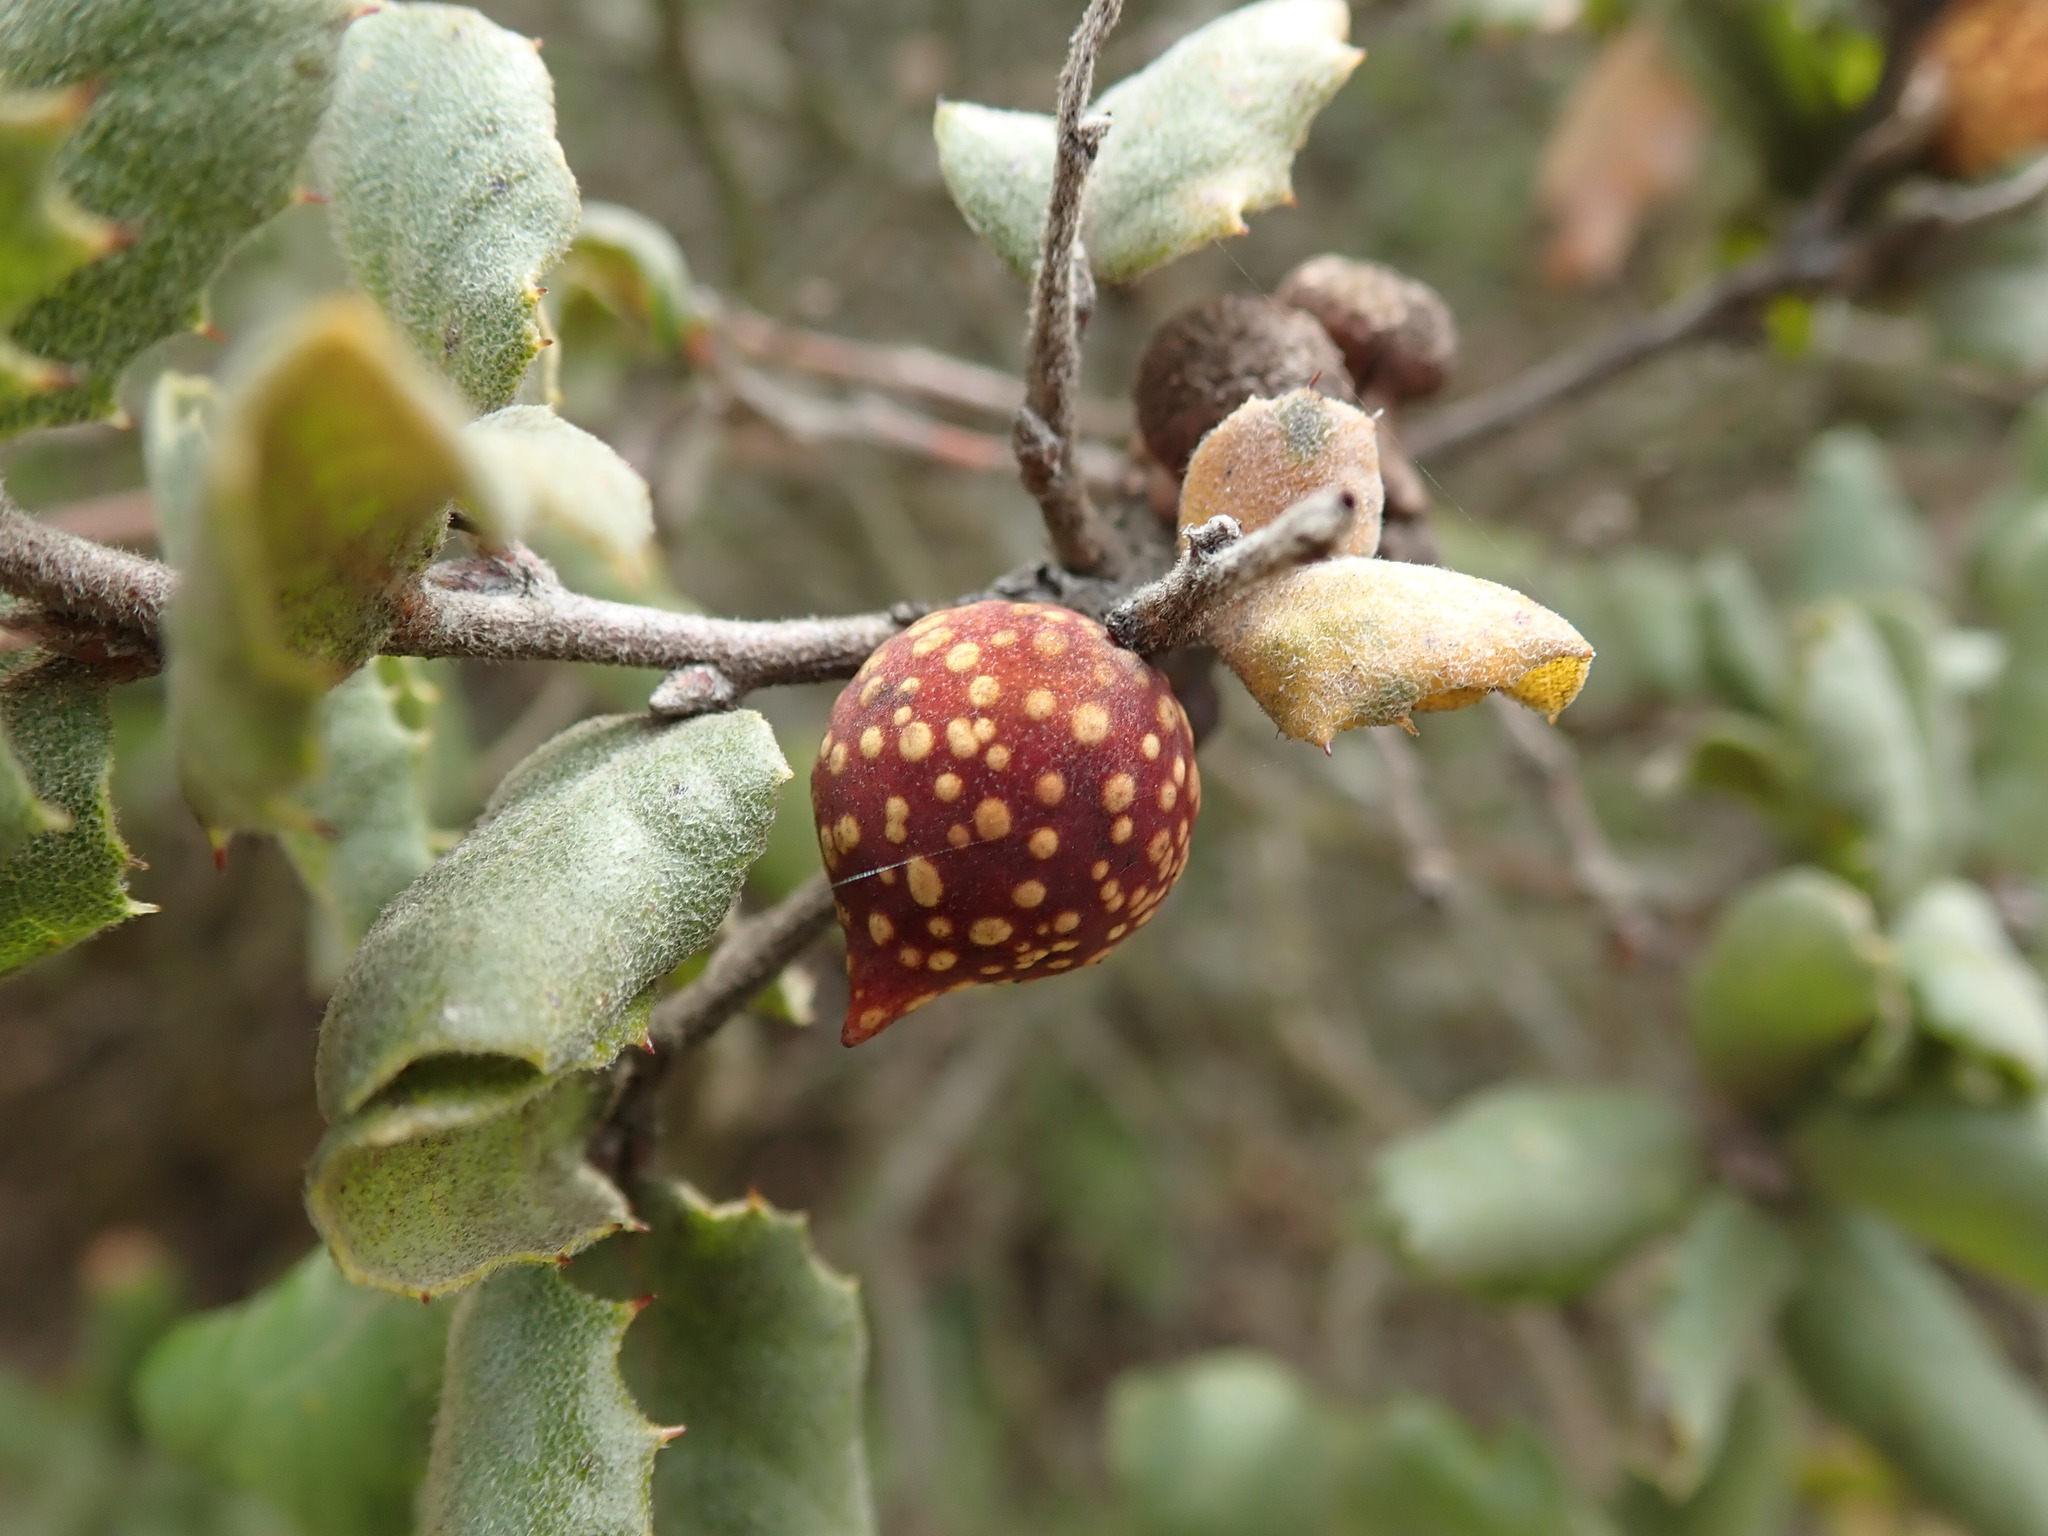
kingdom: Animalia
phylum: Arthropoda
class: Insecta
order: Hymenoptera
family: Cynipidae
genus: Burnettweldia
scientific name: Burnettweldia
